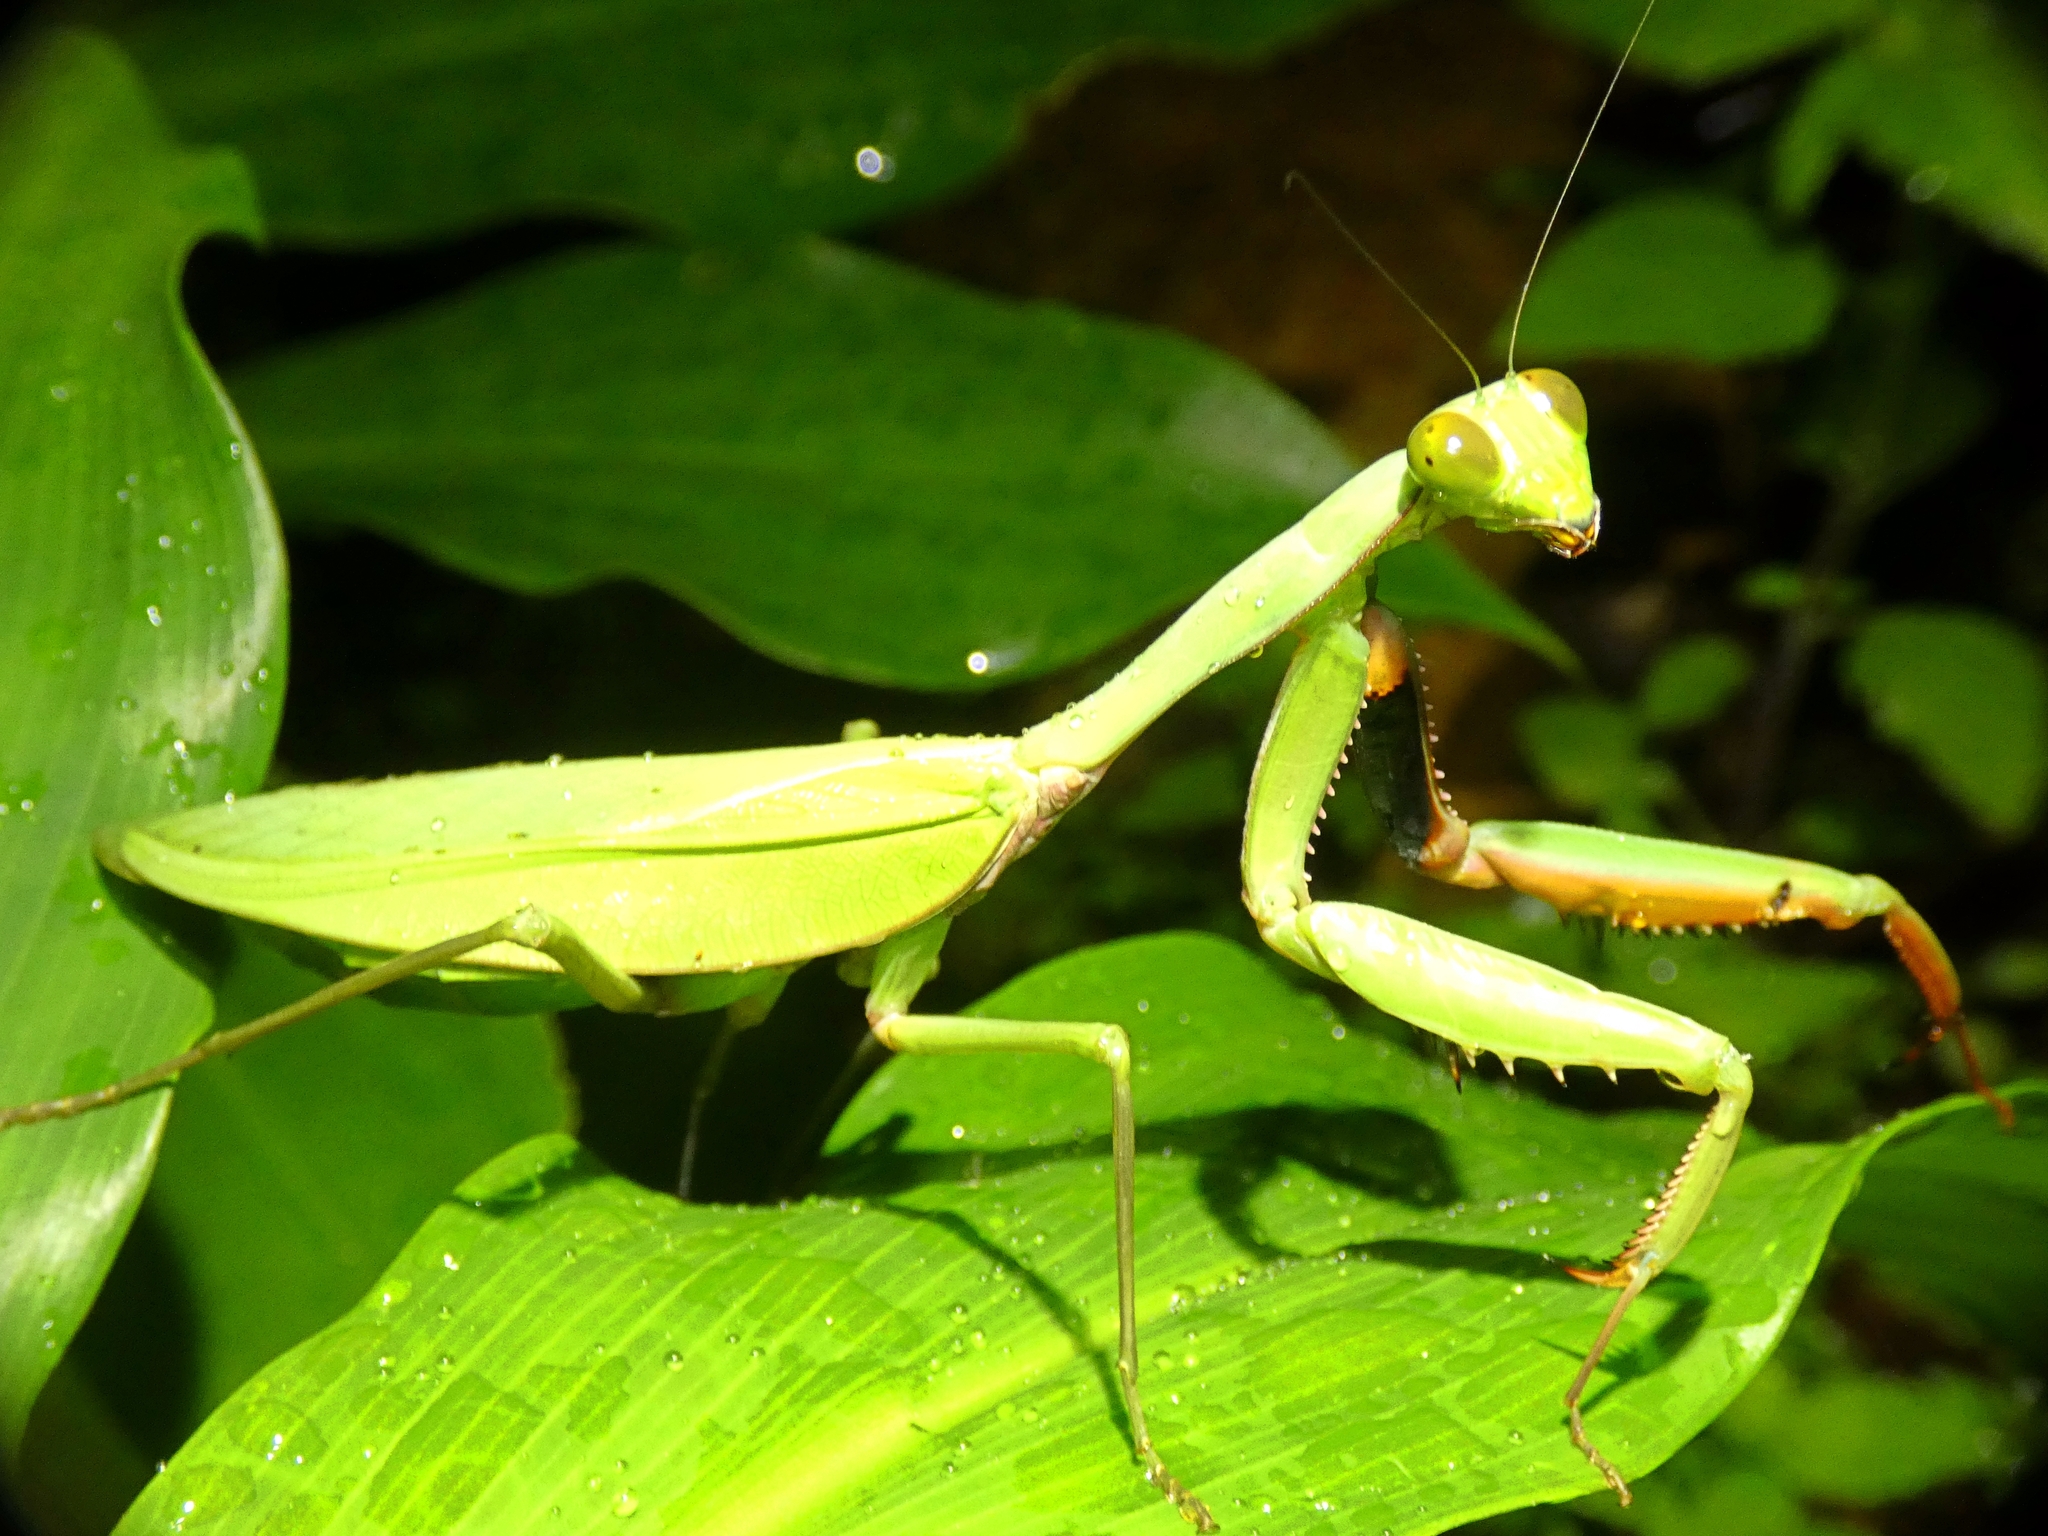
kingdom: Animalia
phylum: Arthropoda
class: Insecta
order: Mantodea
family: Mantidae
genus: Hierodula
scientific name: Hierodula majuscula
